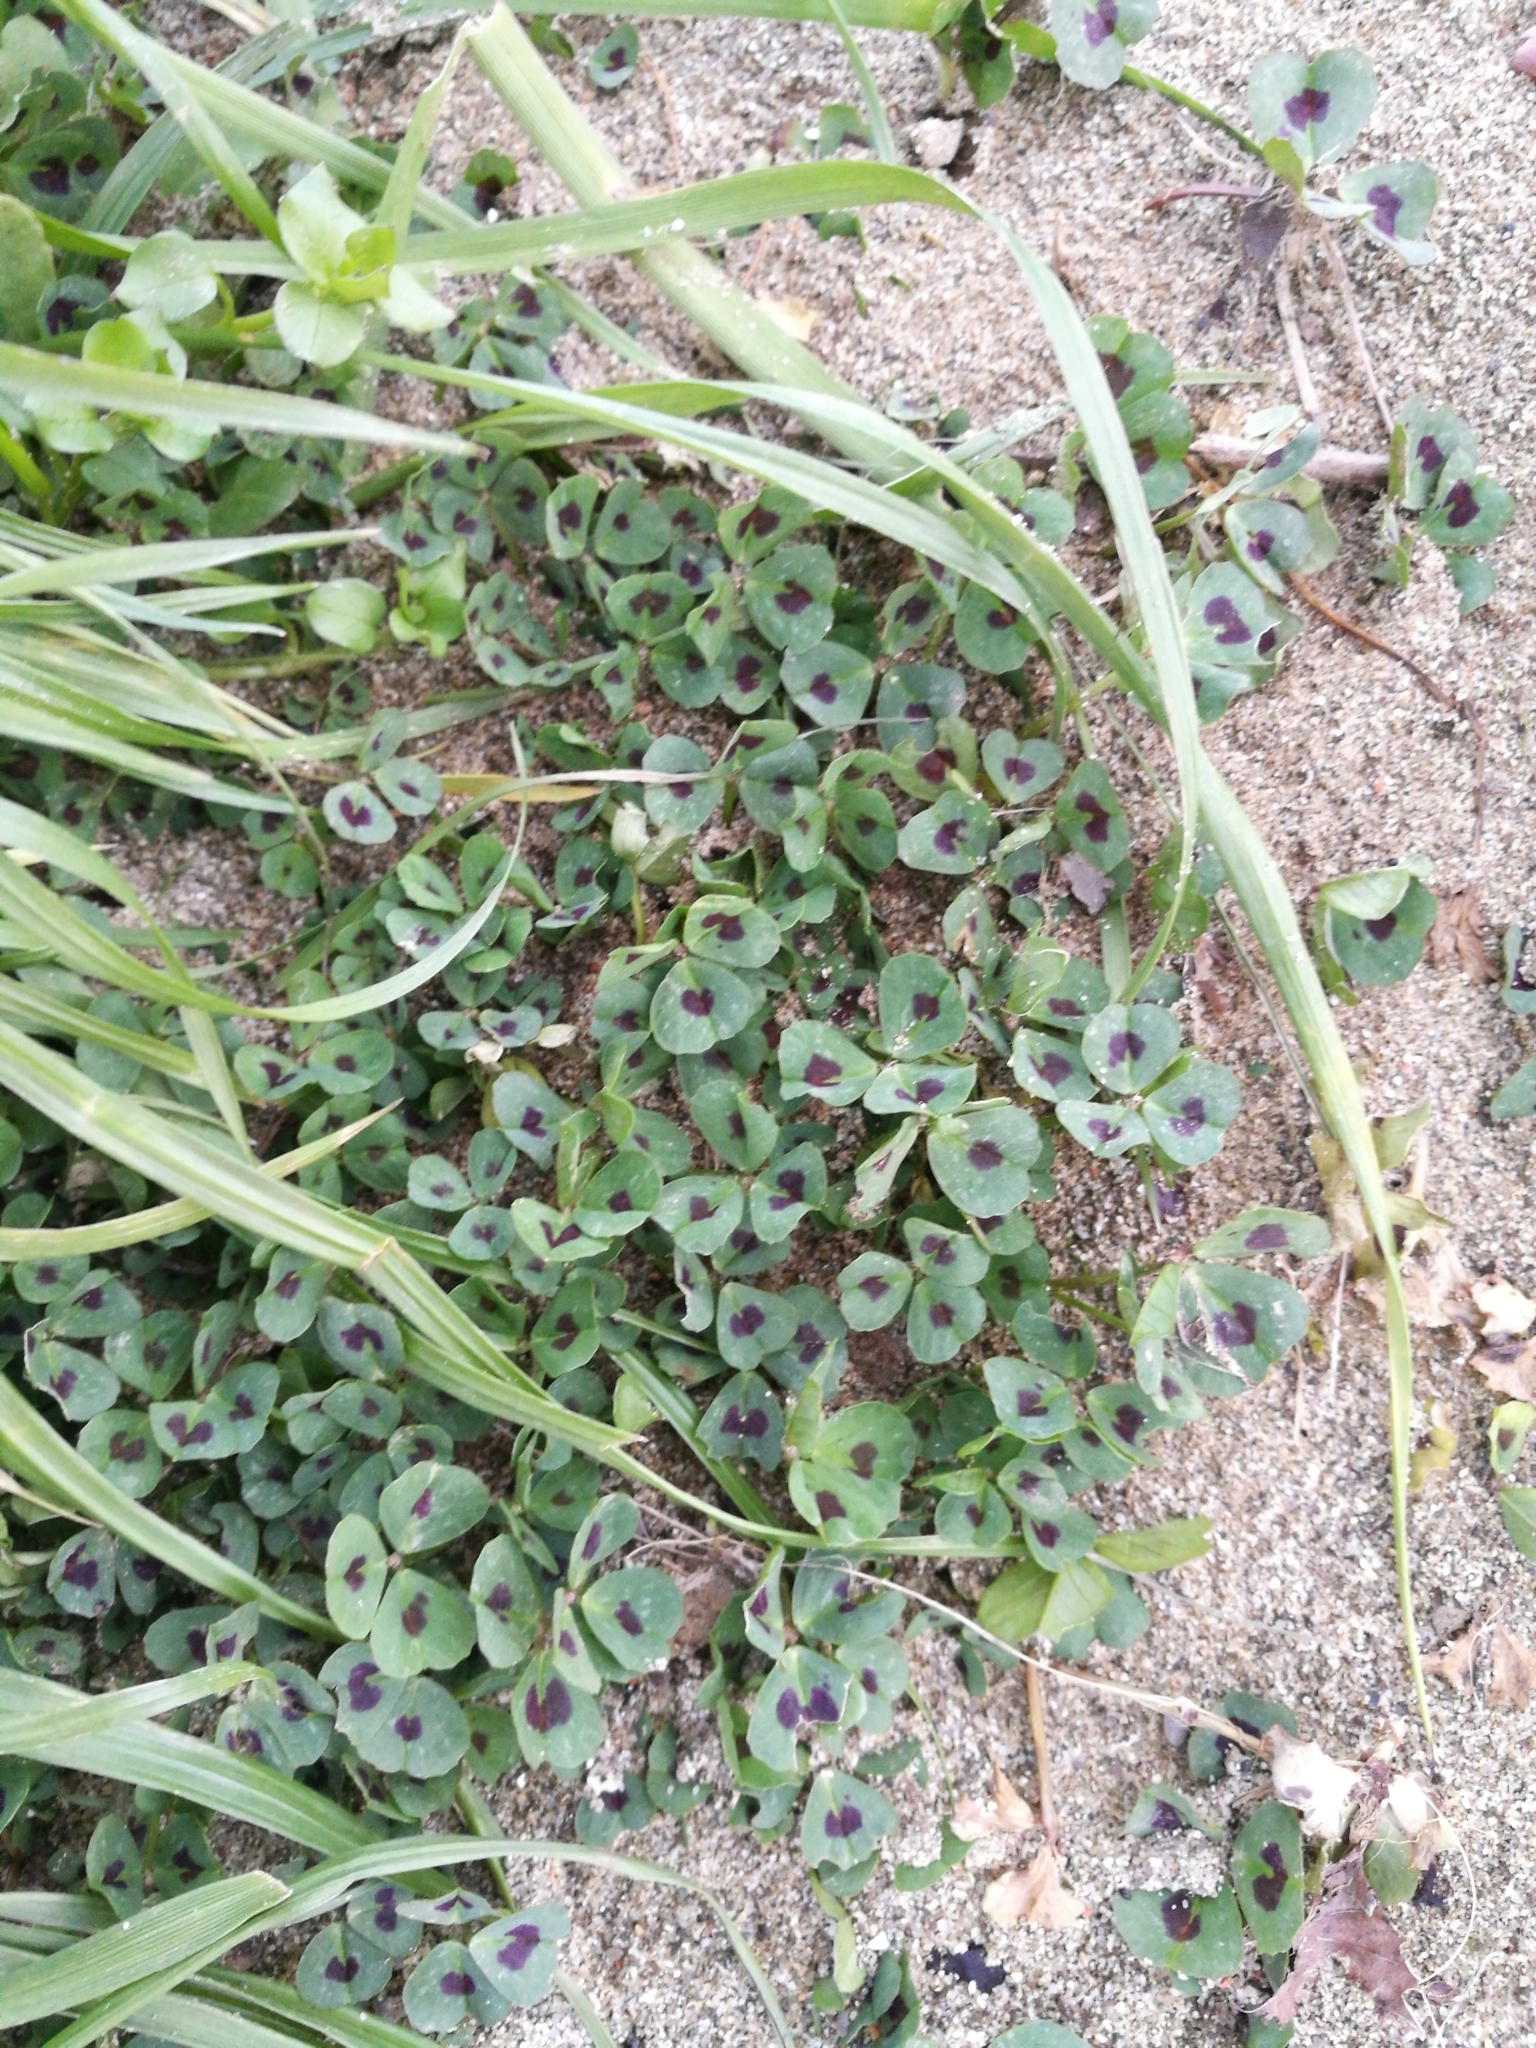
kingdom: Plantae
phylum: Tracheophyta
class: Magnoliopsida
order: Fabales
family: Fabaceae
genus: Medicago
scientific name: Medicago arabica
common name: Spotted medick
